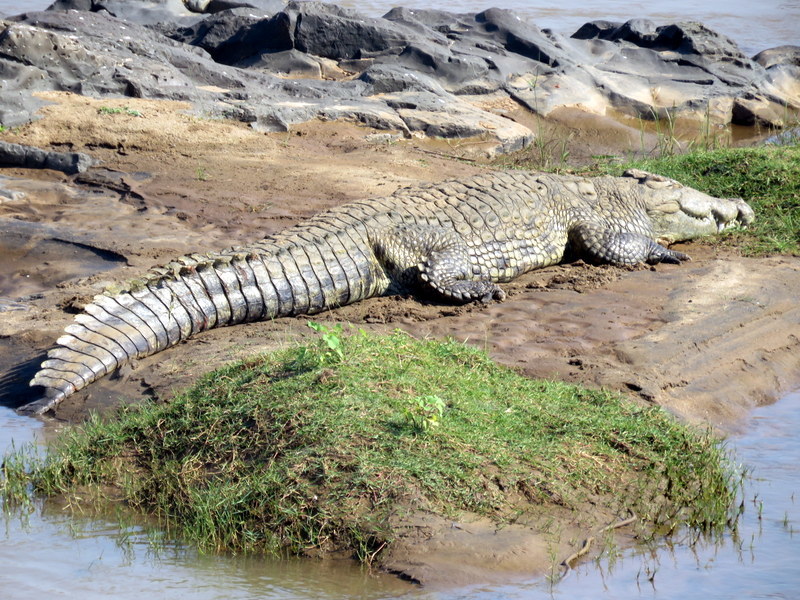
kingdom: Animalia
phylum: Chordata
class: Crocodylia
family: Crocodylidae
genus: Crocodylus
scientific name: Crocodylus niloticus
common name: Nile crocodile
